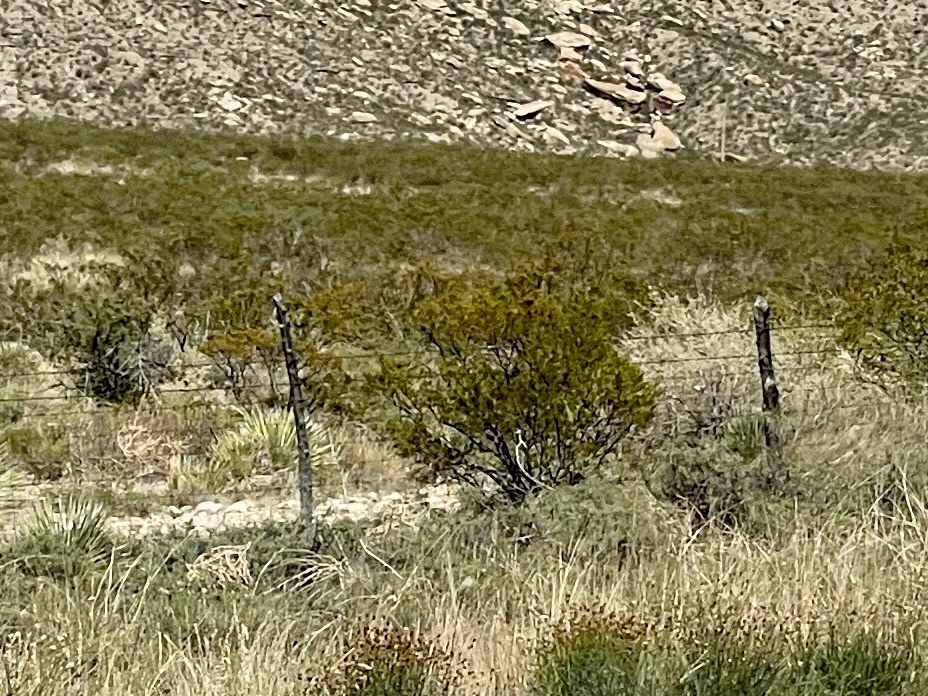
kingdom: Plantae
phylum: Tracheophyta
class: Magnoliopsida
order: Zygophyllales
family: Zygophyllaceae
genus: Larrea
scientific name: Larrea tridentata
